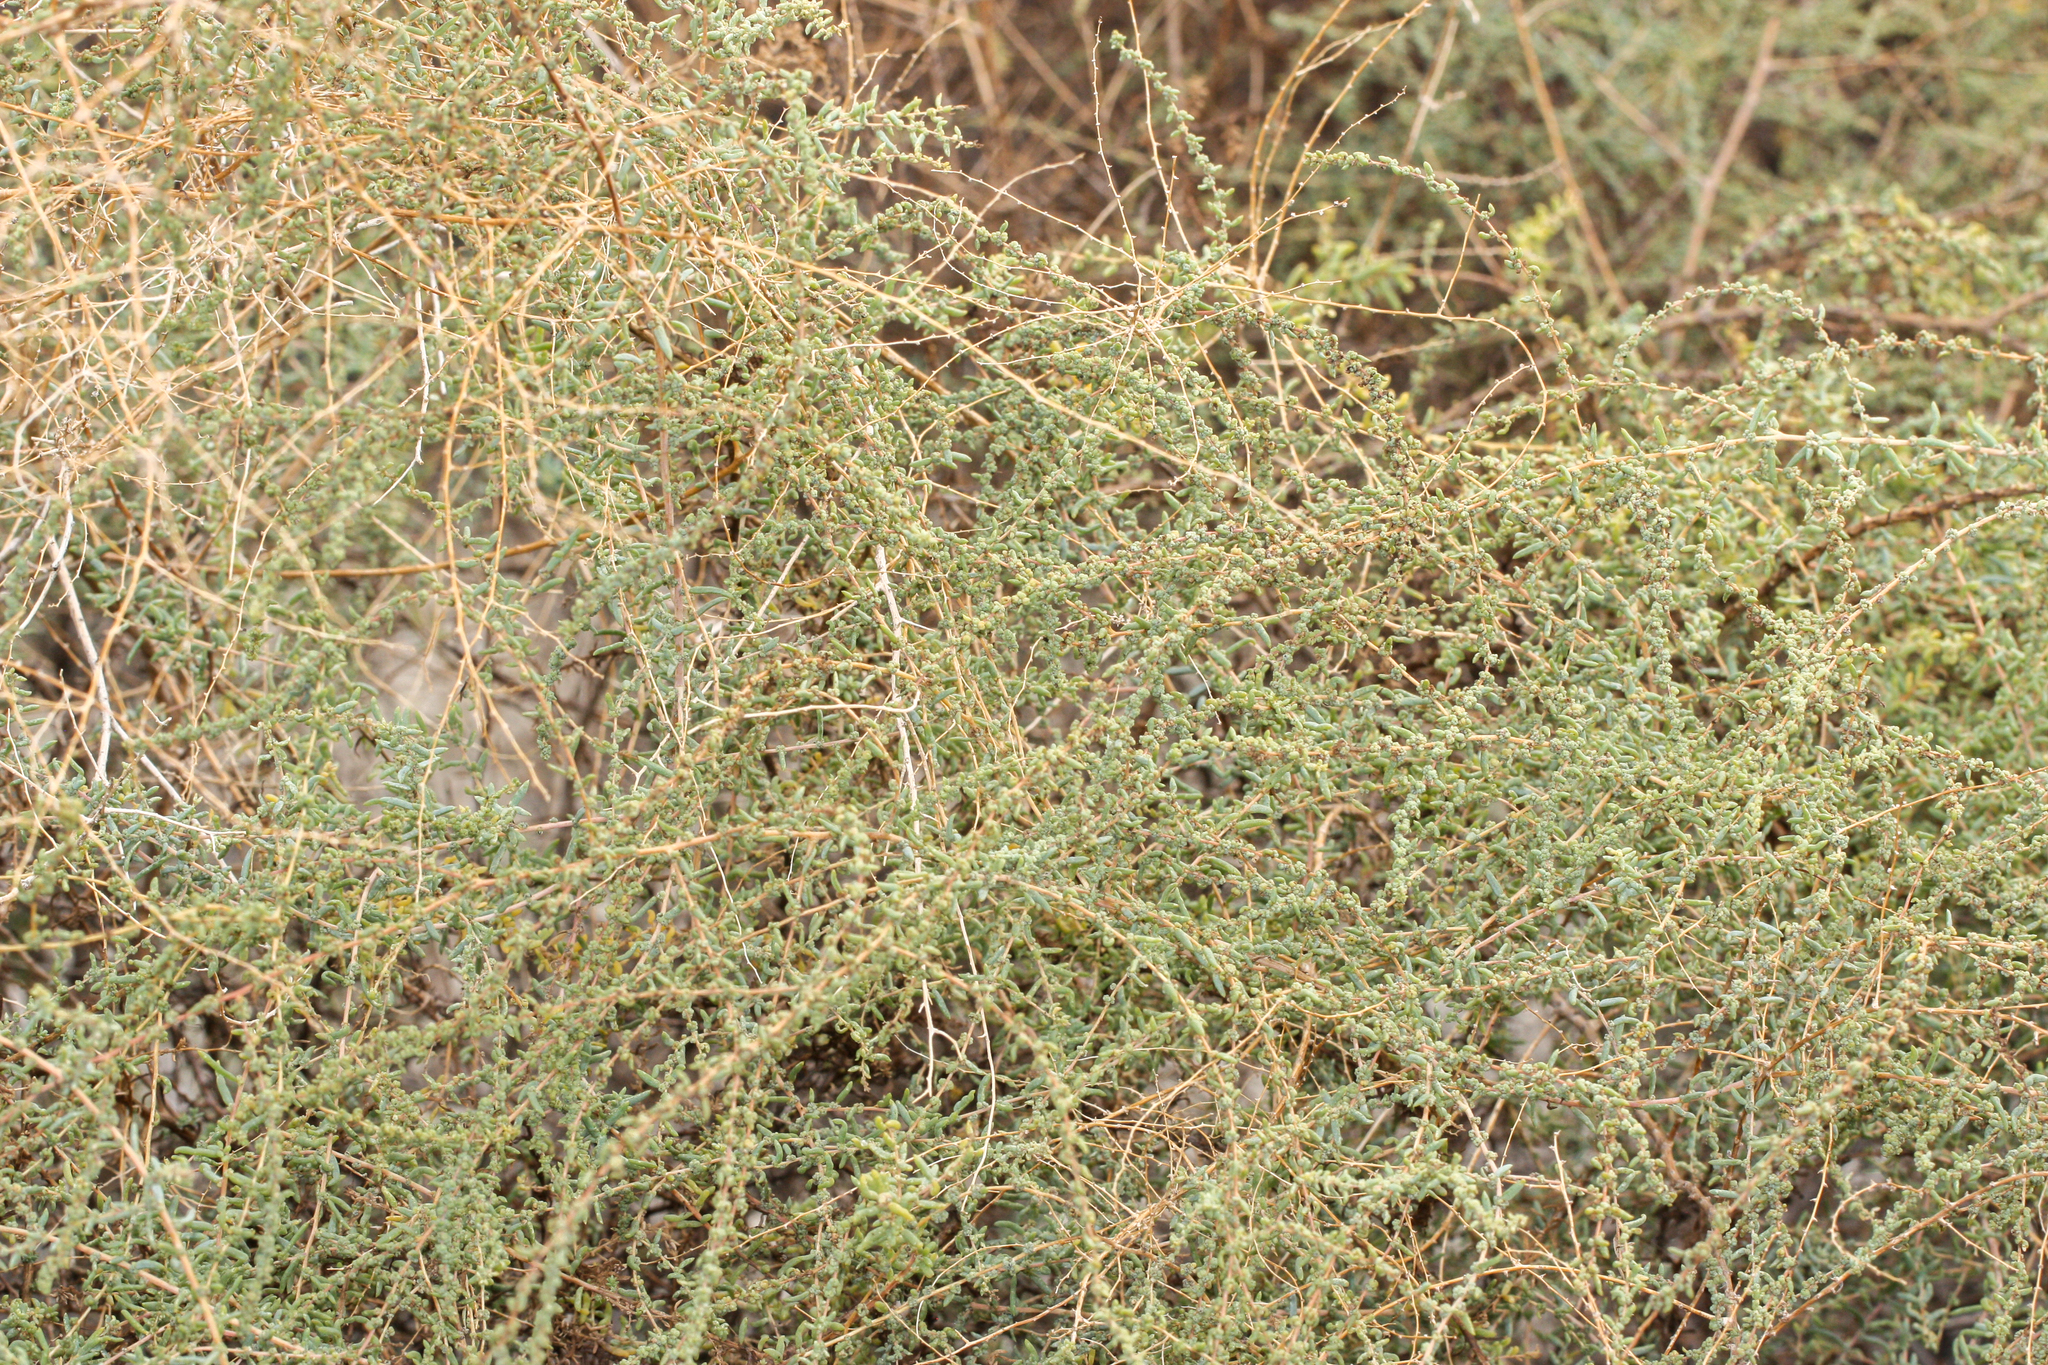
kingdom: Plantae
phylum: Tracheophyta
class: Magnoliopsida
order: Caryophyllales
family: Amaranthaceae
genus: Suaeda
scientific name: Suaeda nigra
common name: Bush seepweed
